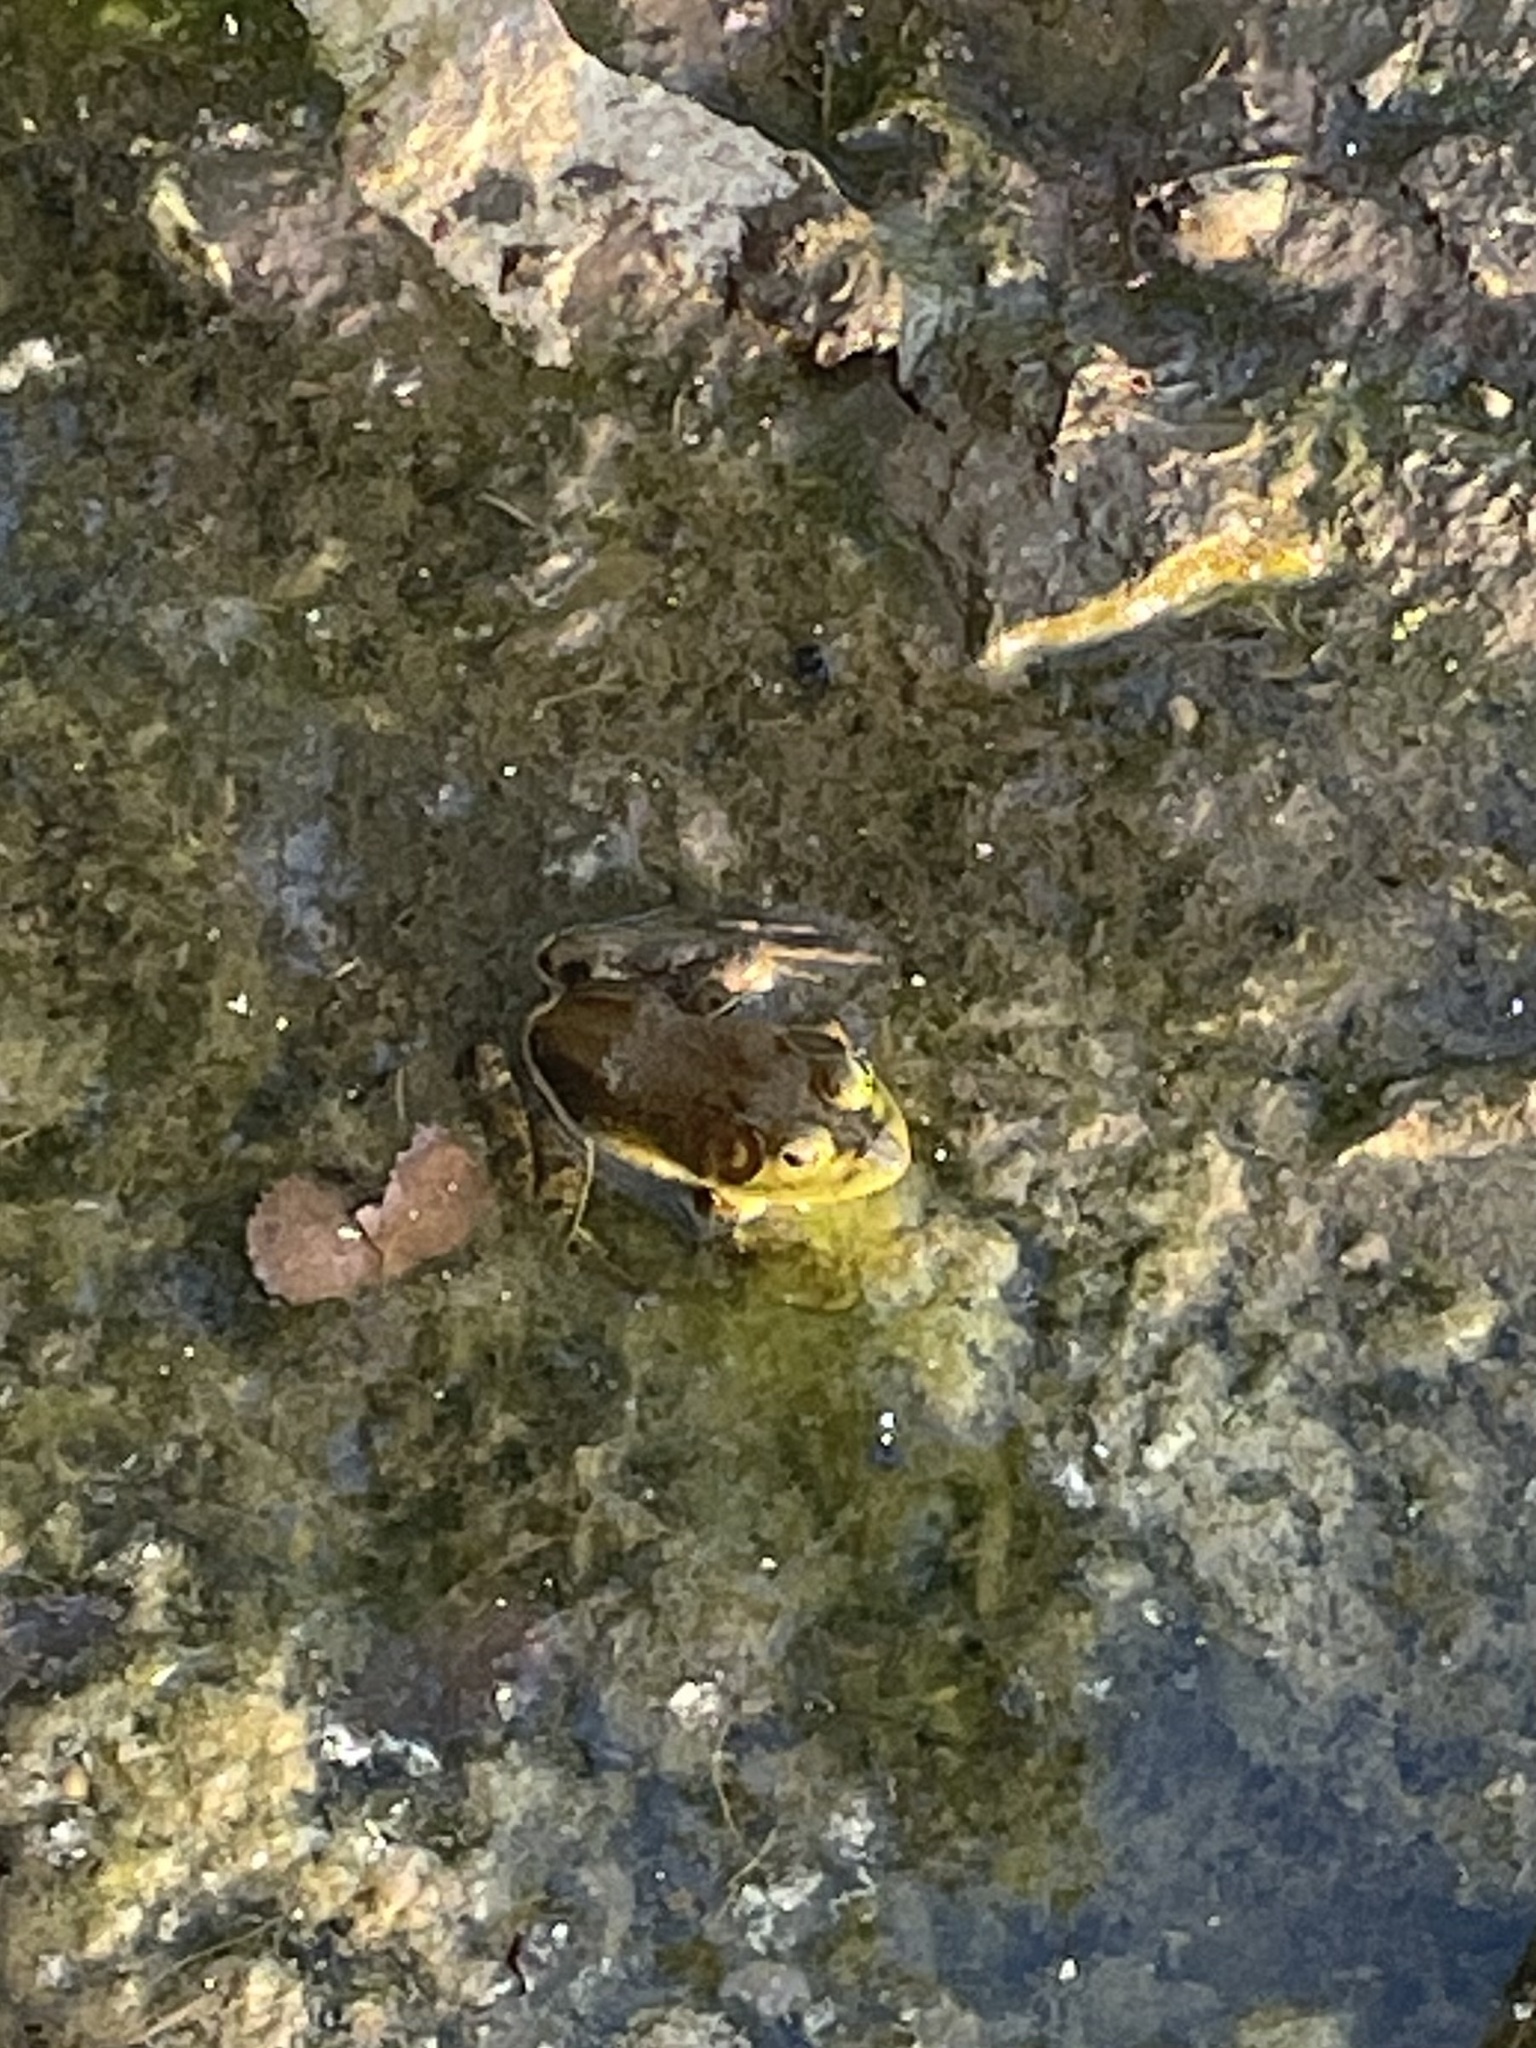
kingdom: Animalia
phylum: Chordata
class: Amphibia
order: Anura
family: Ranidae
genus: Lithobates
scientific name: Lithobates catesbeianus
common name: American bullfrog
